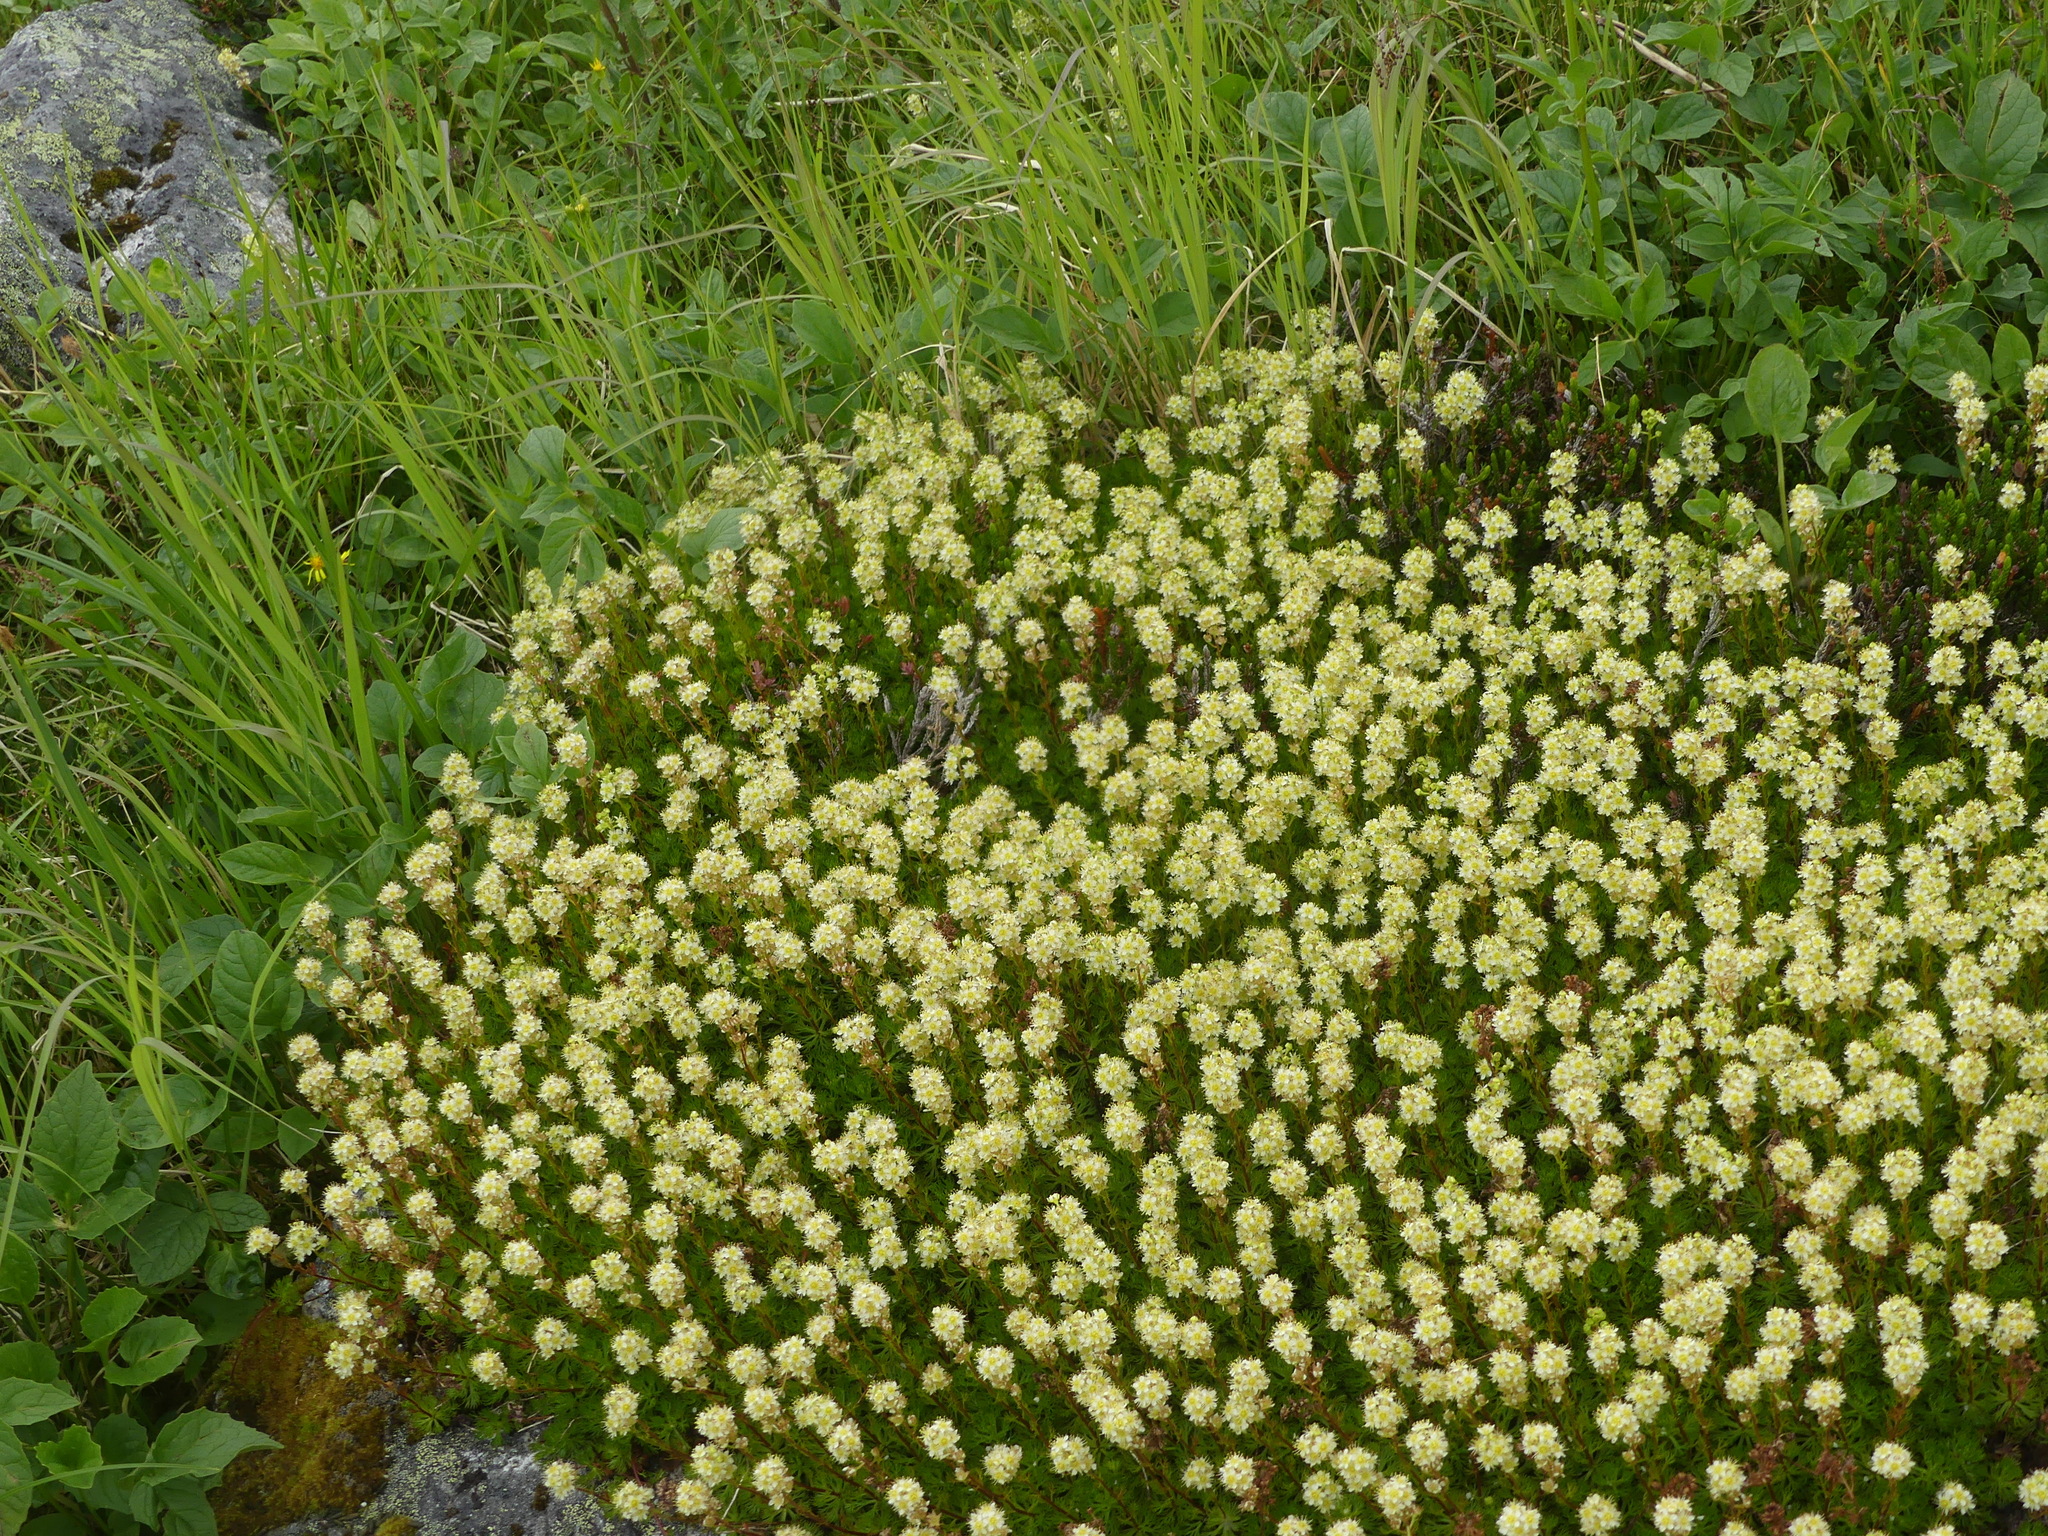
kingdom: Plantae
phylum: Tracheophyta
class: Magnoliopsida
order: Rosales
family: Rosaceae
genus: Luetkea
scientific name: Luetkea pectinata
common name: Partridgefoot
